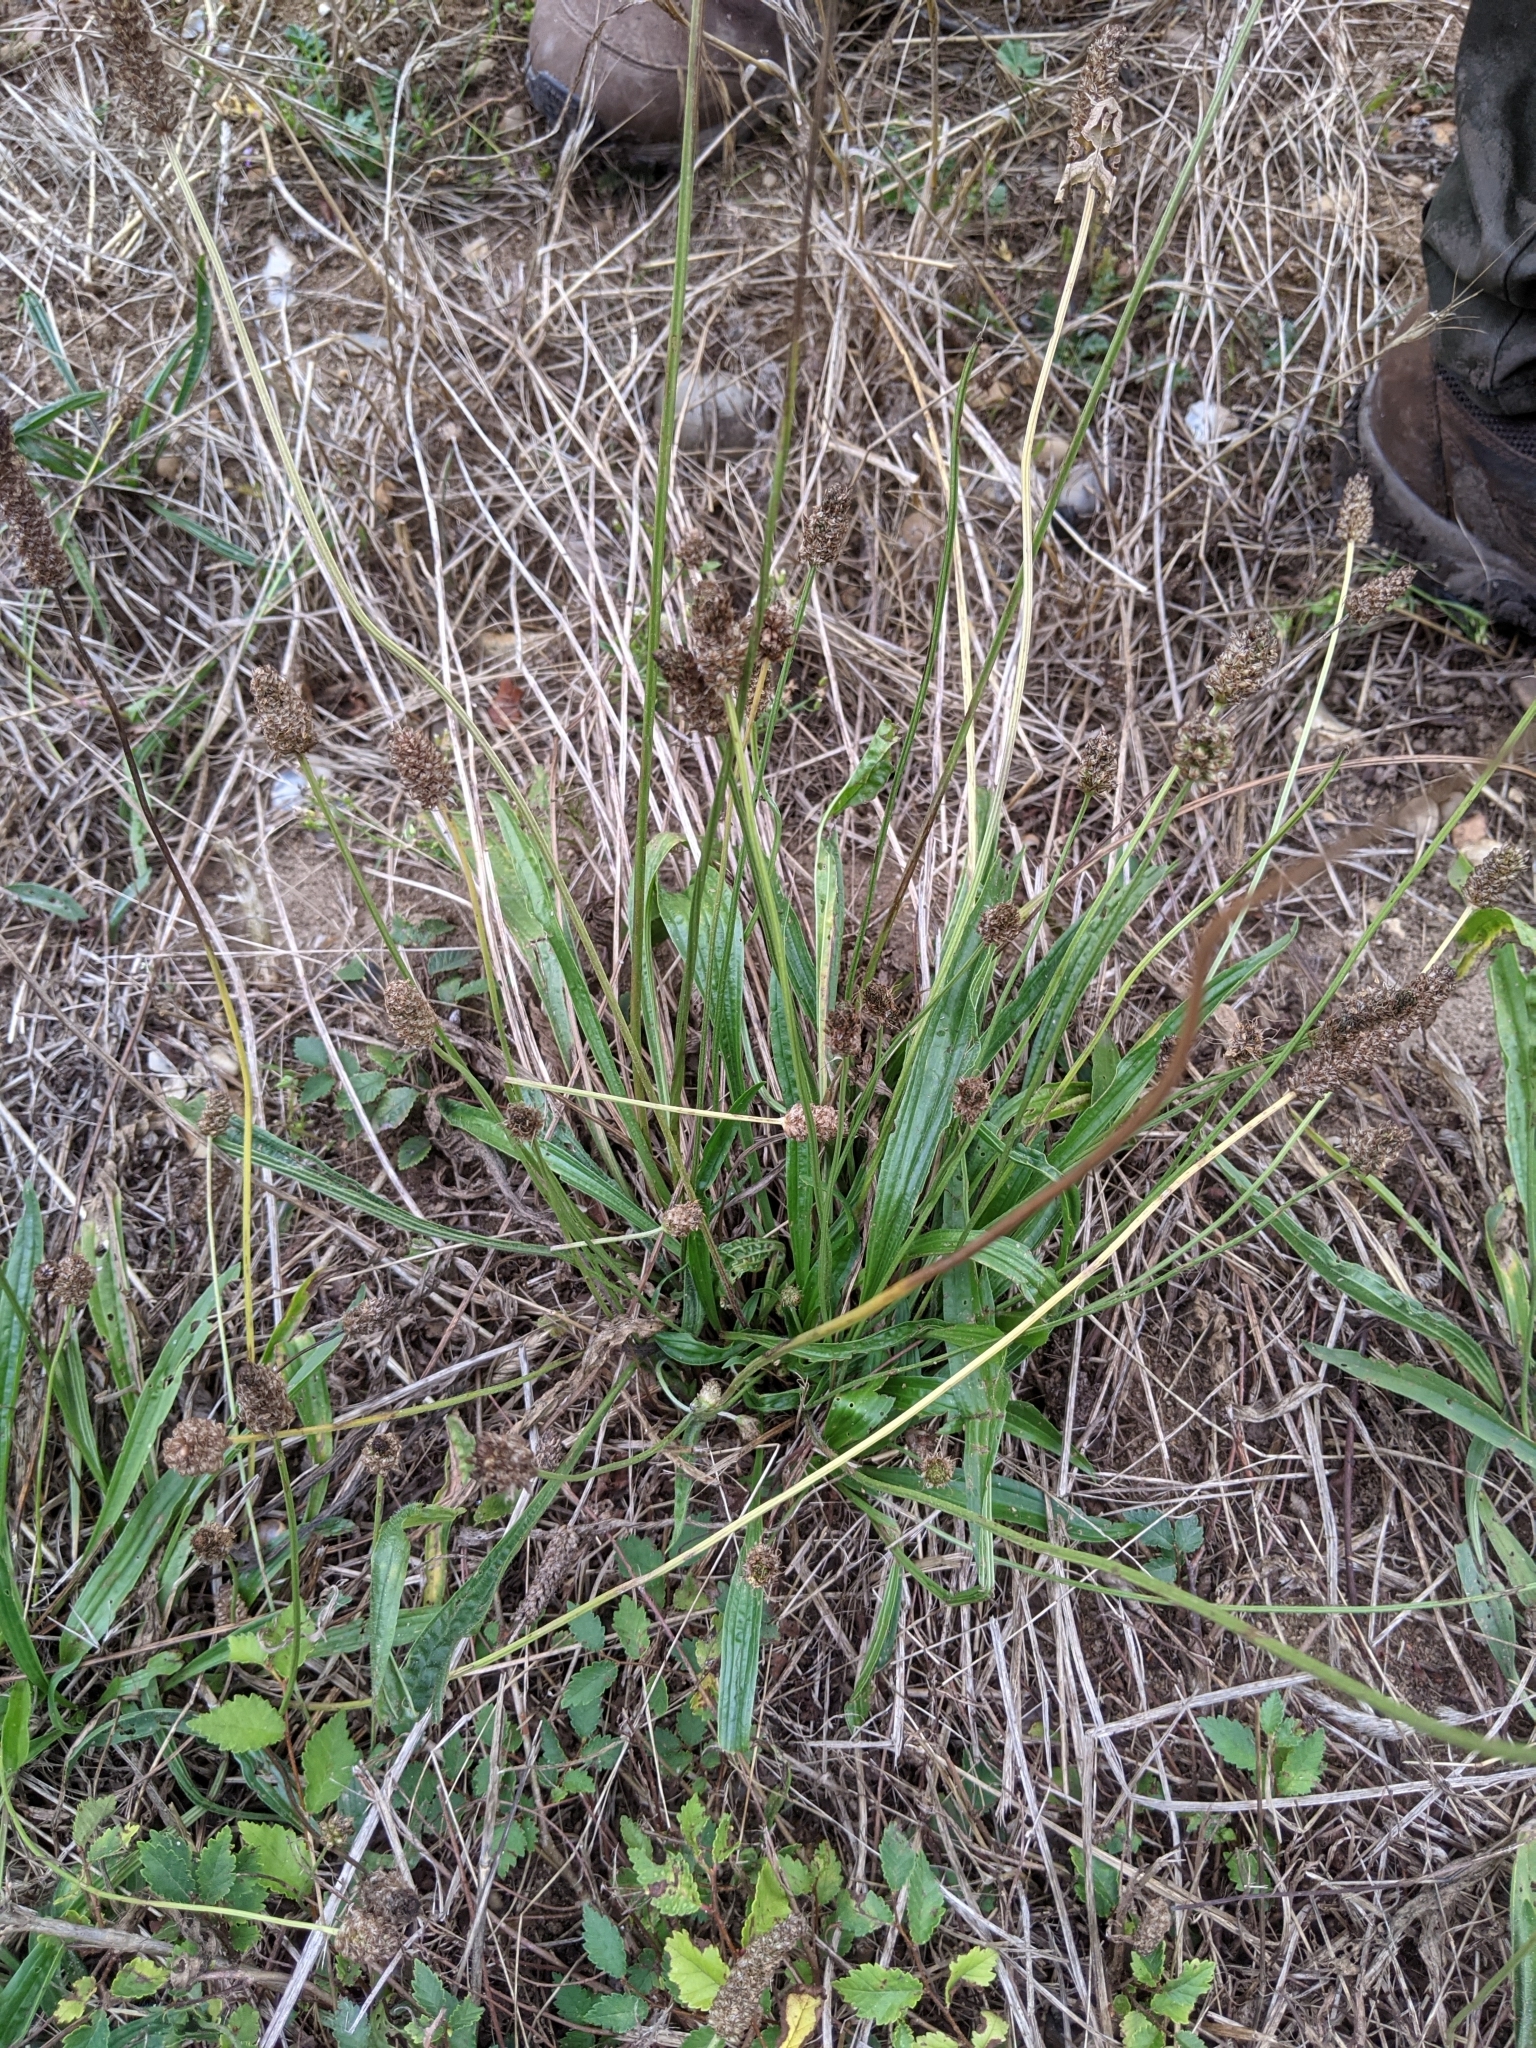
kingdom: Plantae
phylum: Tracheophyta
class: Magnoliopsida
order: Lamiales
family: Plantaginaceae
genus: Plantago
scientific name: Plantago lanceolata
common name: Ribwort plantain
